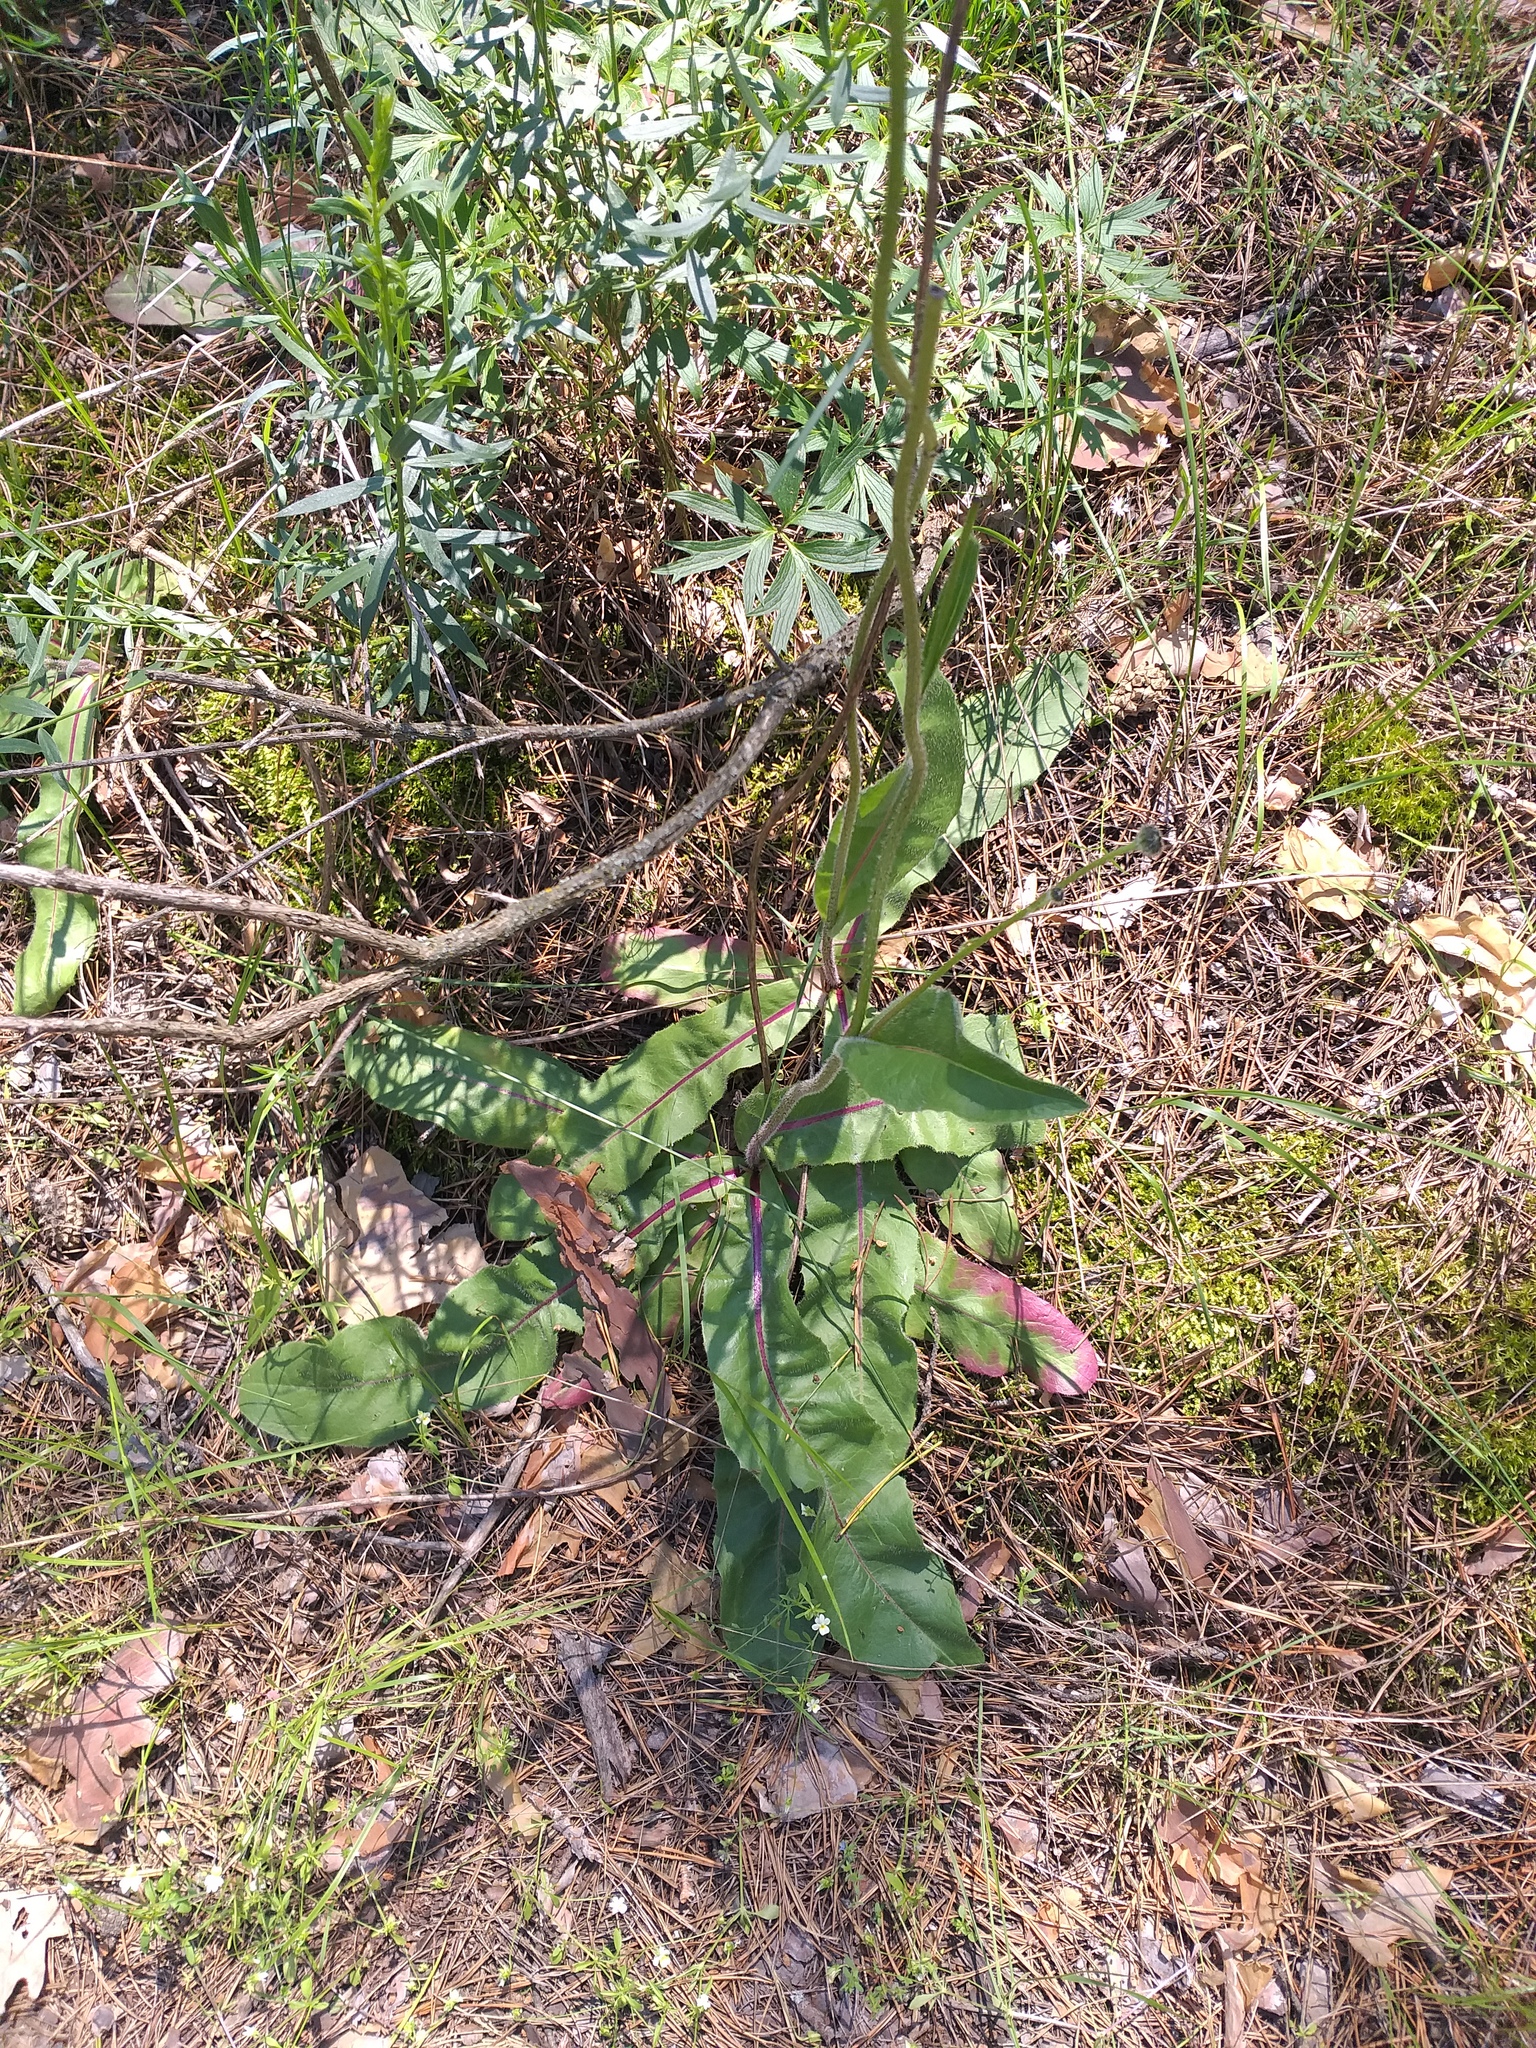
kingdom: Plantae
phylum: Tracheophyta
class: Magnoliopsida
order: Asterales
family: Asteraceae
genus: Trommsdorffia
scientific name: Trommsdorffia maculata
